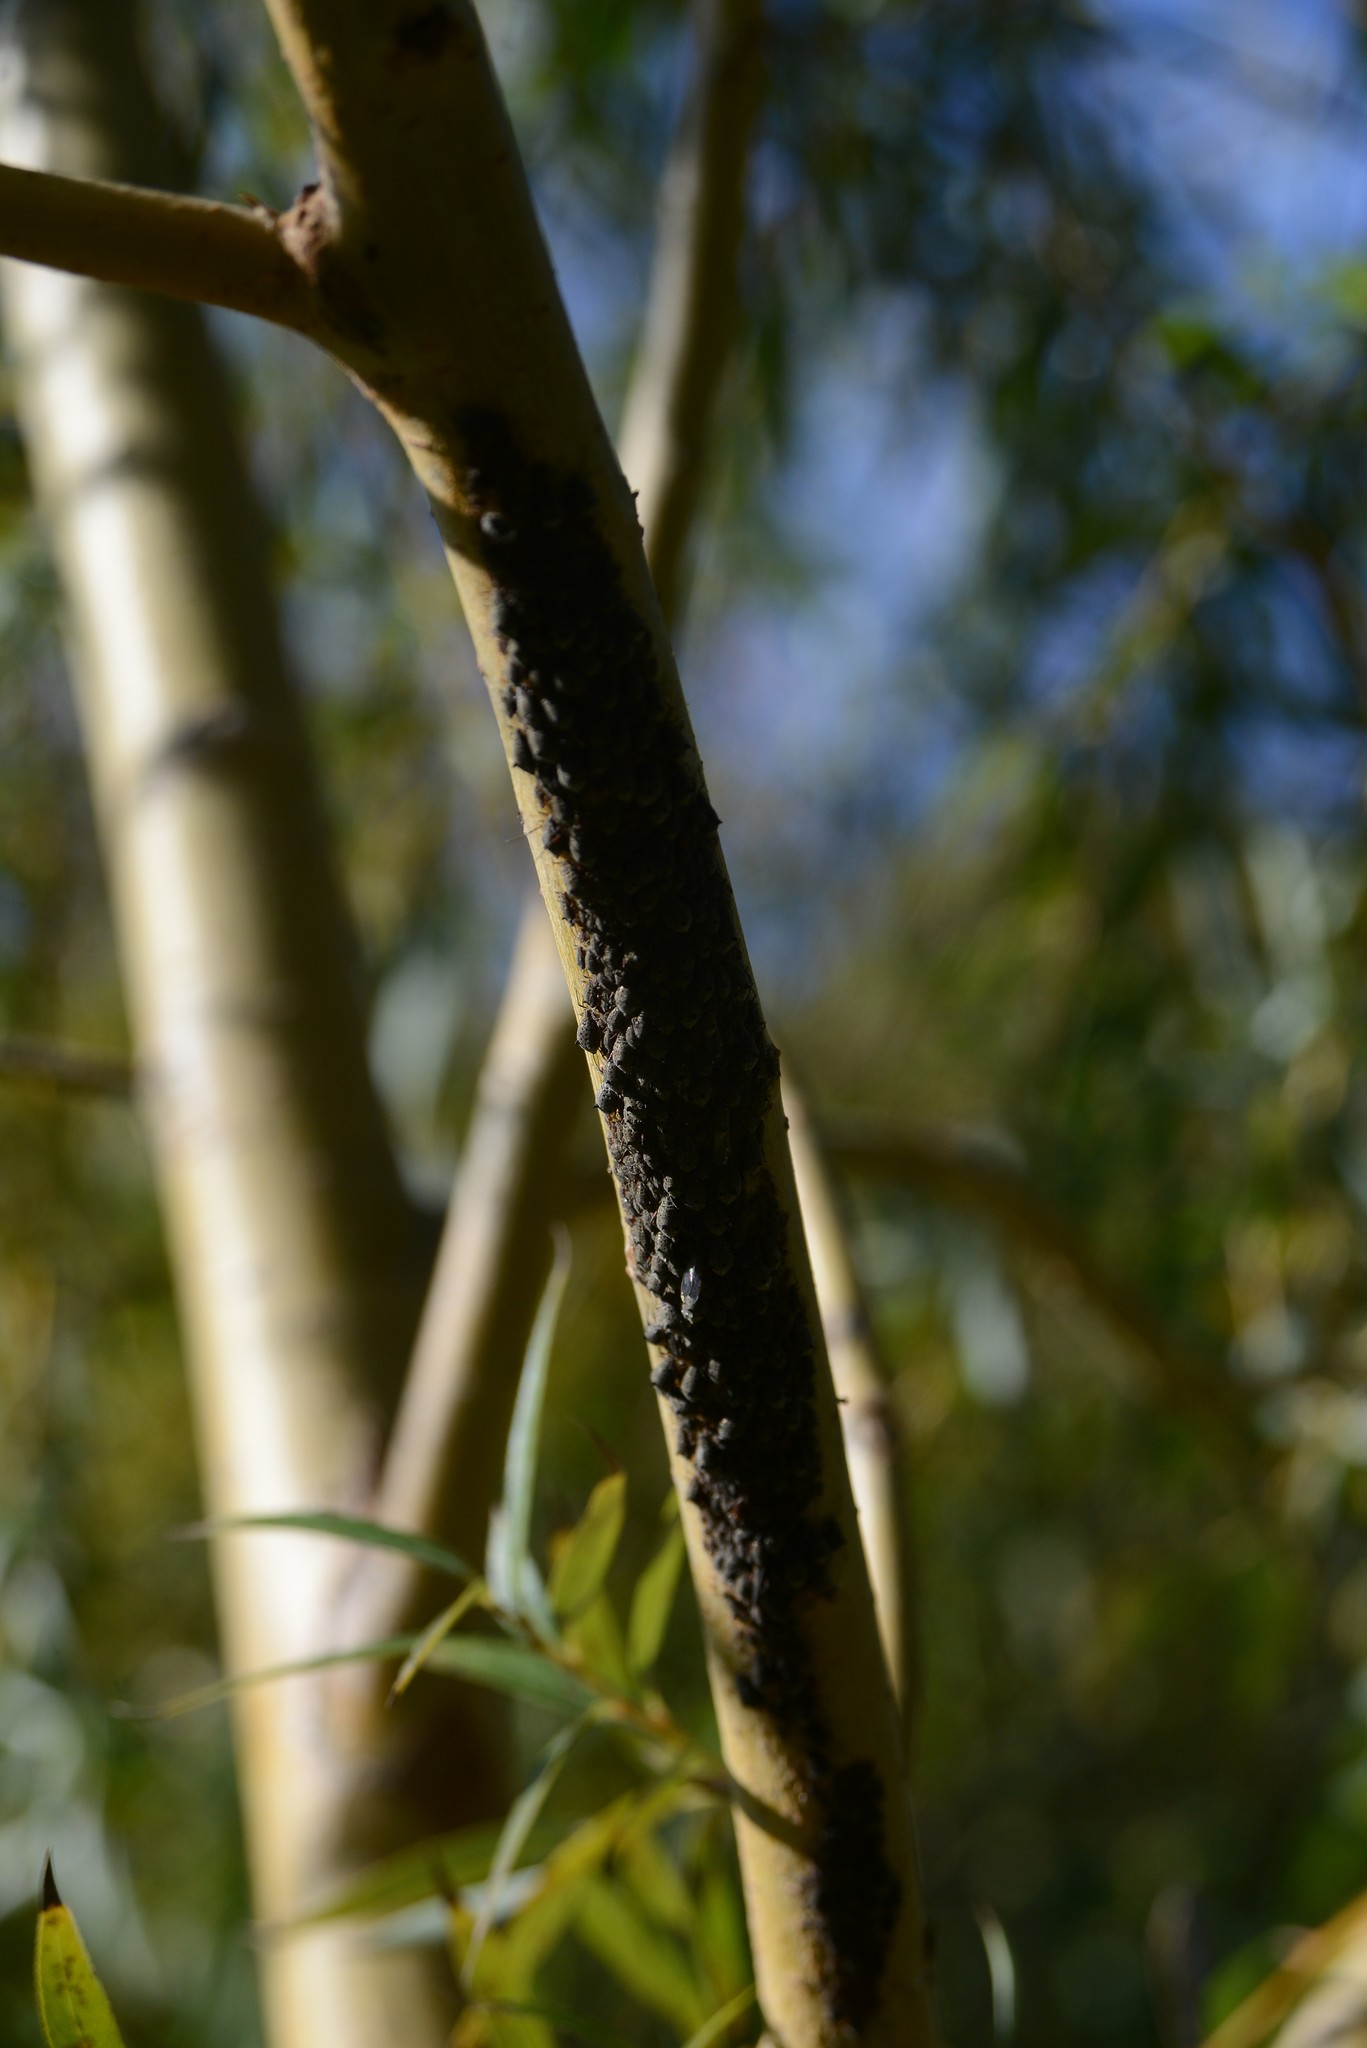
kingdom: Animalia
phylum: Arthropoda
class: Insecta
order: Hemiptera
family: Aphididae
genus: Tuberolachnus
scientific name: Tuberolachnus salignus
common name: Giant willow aphid
